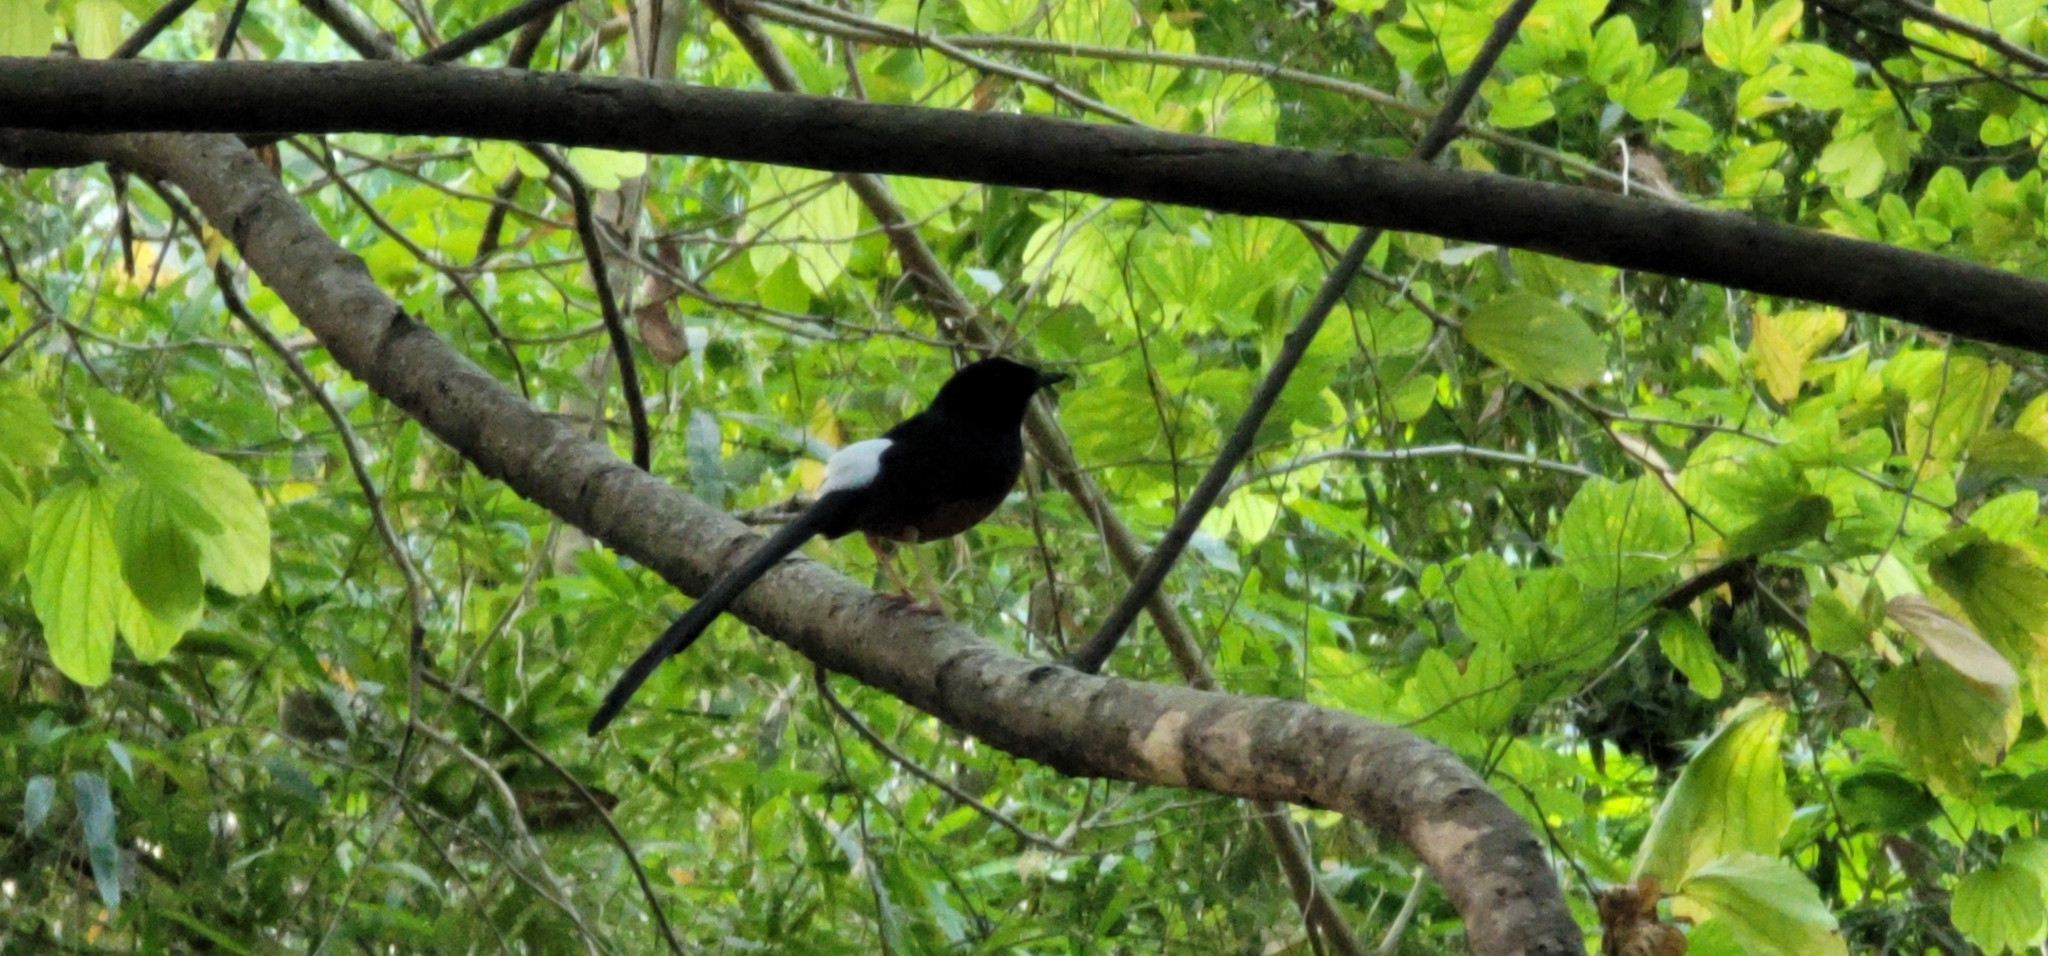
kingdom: Animalia
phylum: Chordata
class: Aves
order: Passeriformes
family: Muscicapidae
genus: Copsychus
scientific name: Copsychus malabaricus
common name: White-rumped shama
